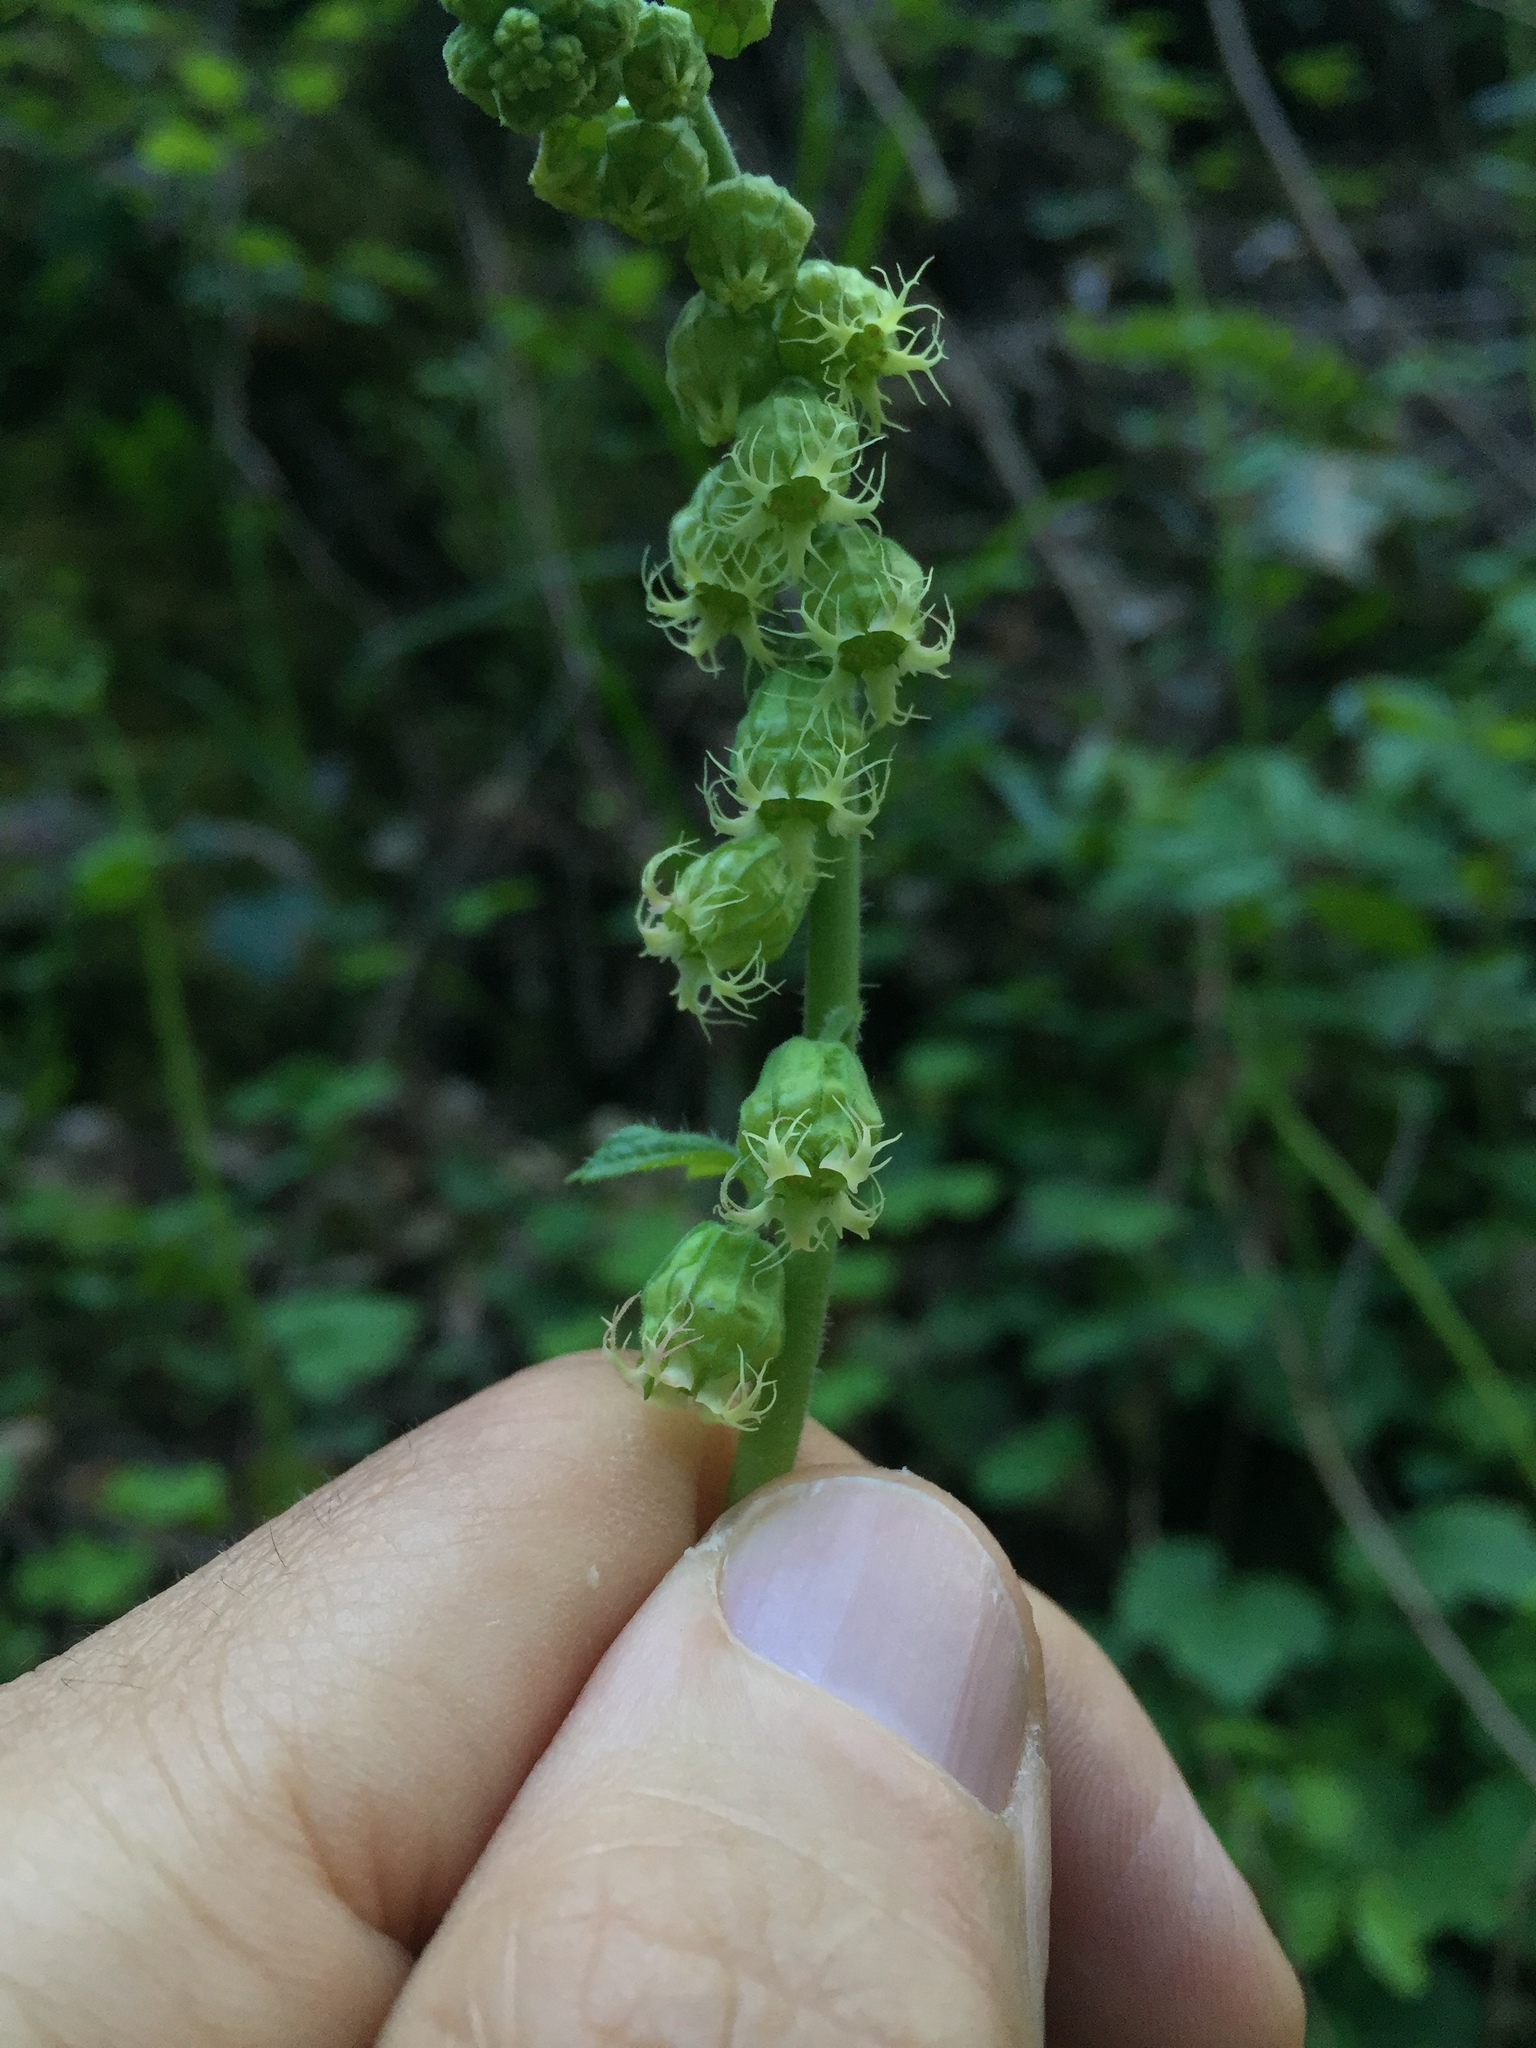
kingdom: Plantae
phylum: Tracheophyta
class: Magnoliopsida
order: Saxifragales
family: Saxifragaceae
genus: Tellima
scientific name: Tellima grandiflora
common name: Fringecups
